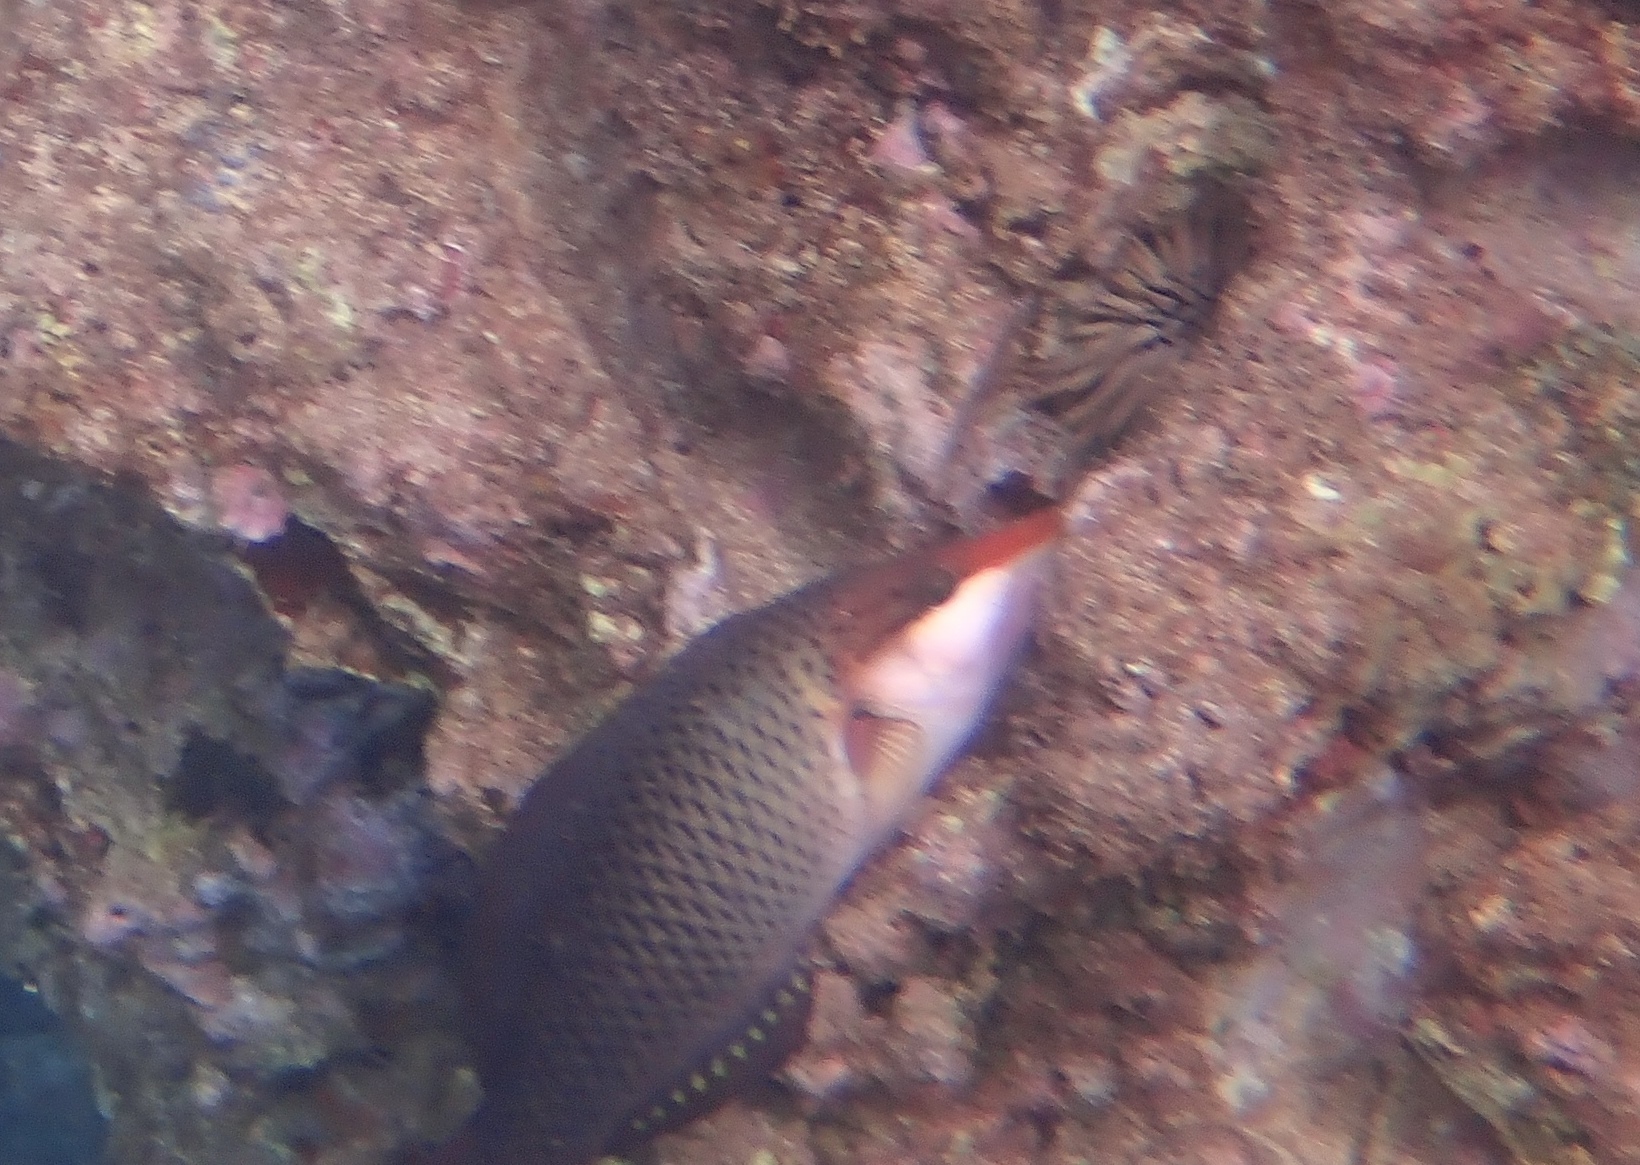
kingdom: Animalia
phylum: Chordata
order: Perciformes
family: Labridae
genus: Gomphosus
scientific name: Gomphosus varius
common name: Bird wrasse
